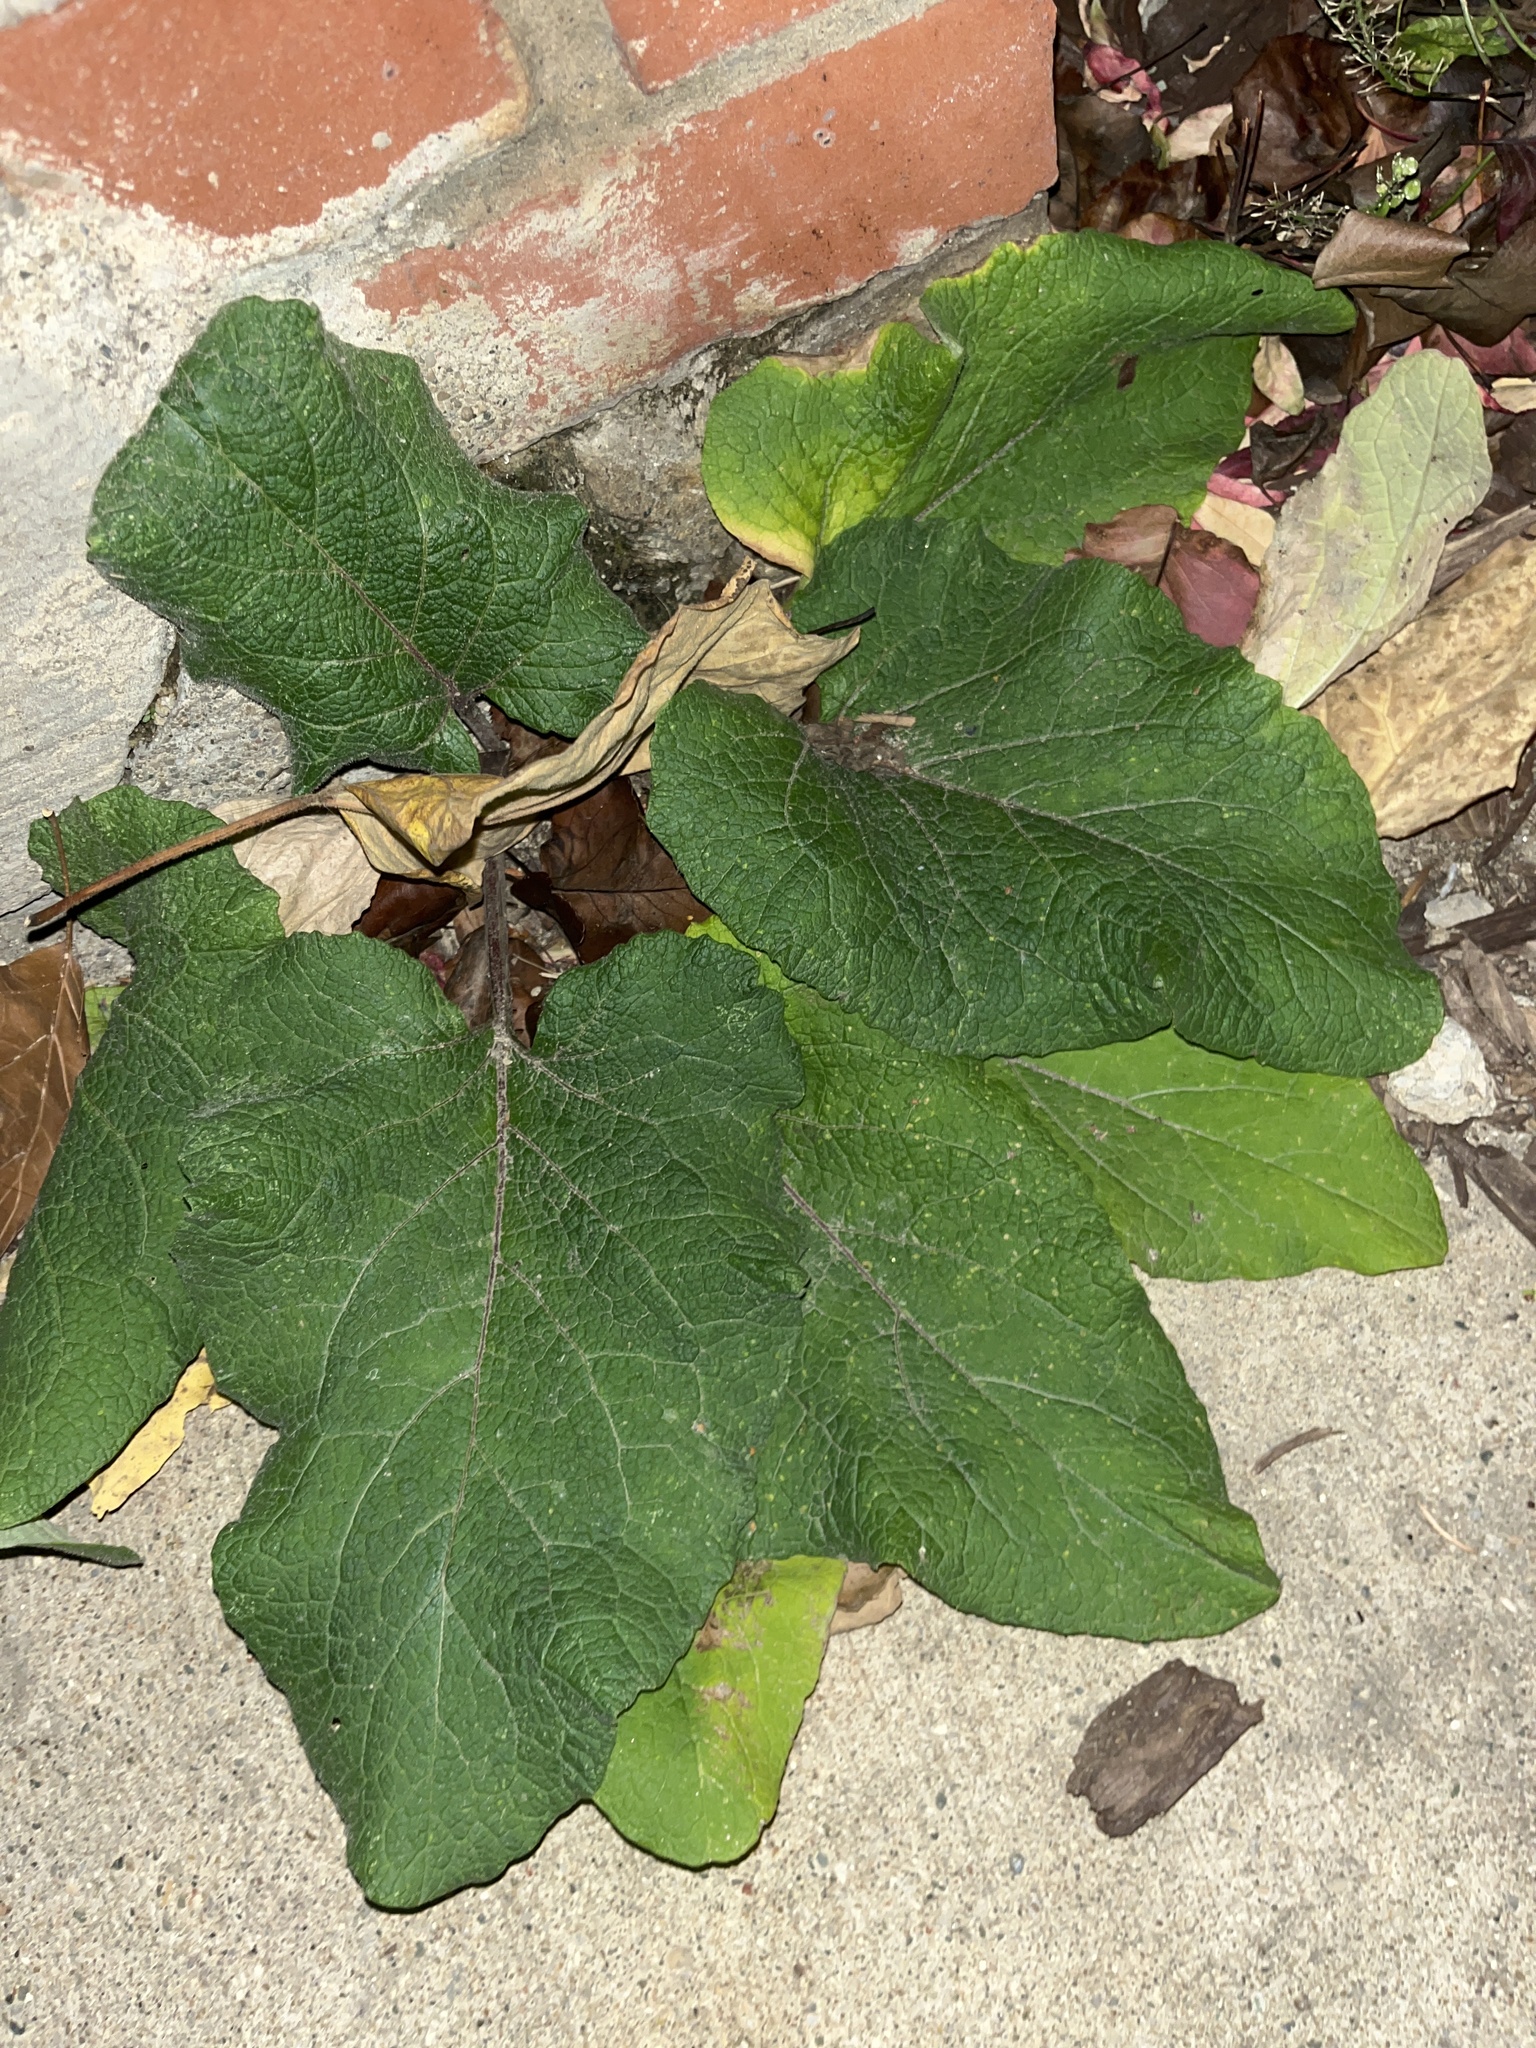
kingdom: Plantae
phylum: Tracheophyta
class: Magnoliopsida
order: Asterales
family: Asteraceae
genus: Arctium
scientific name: Arctium
